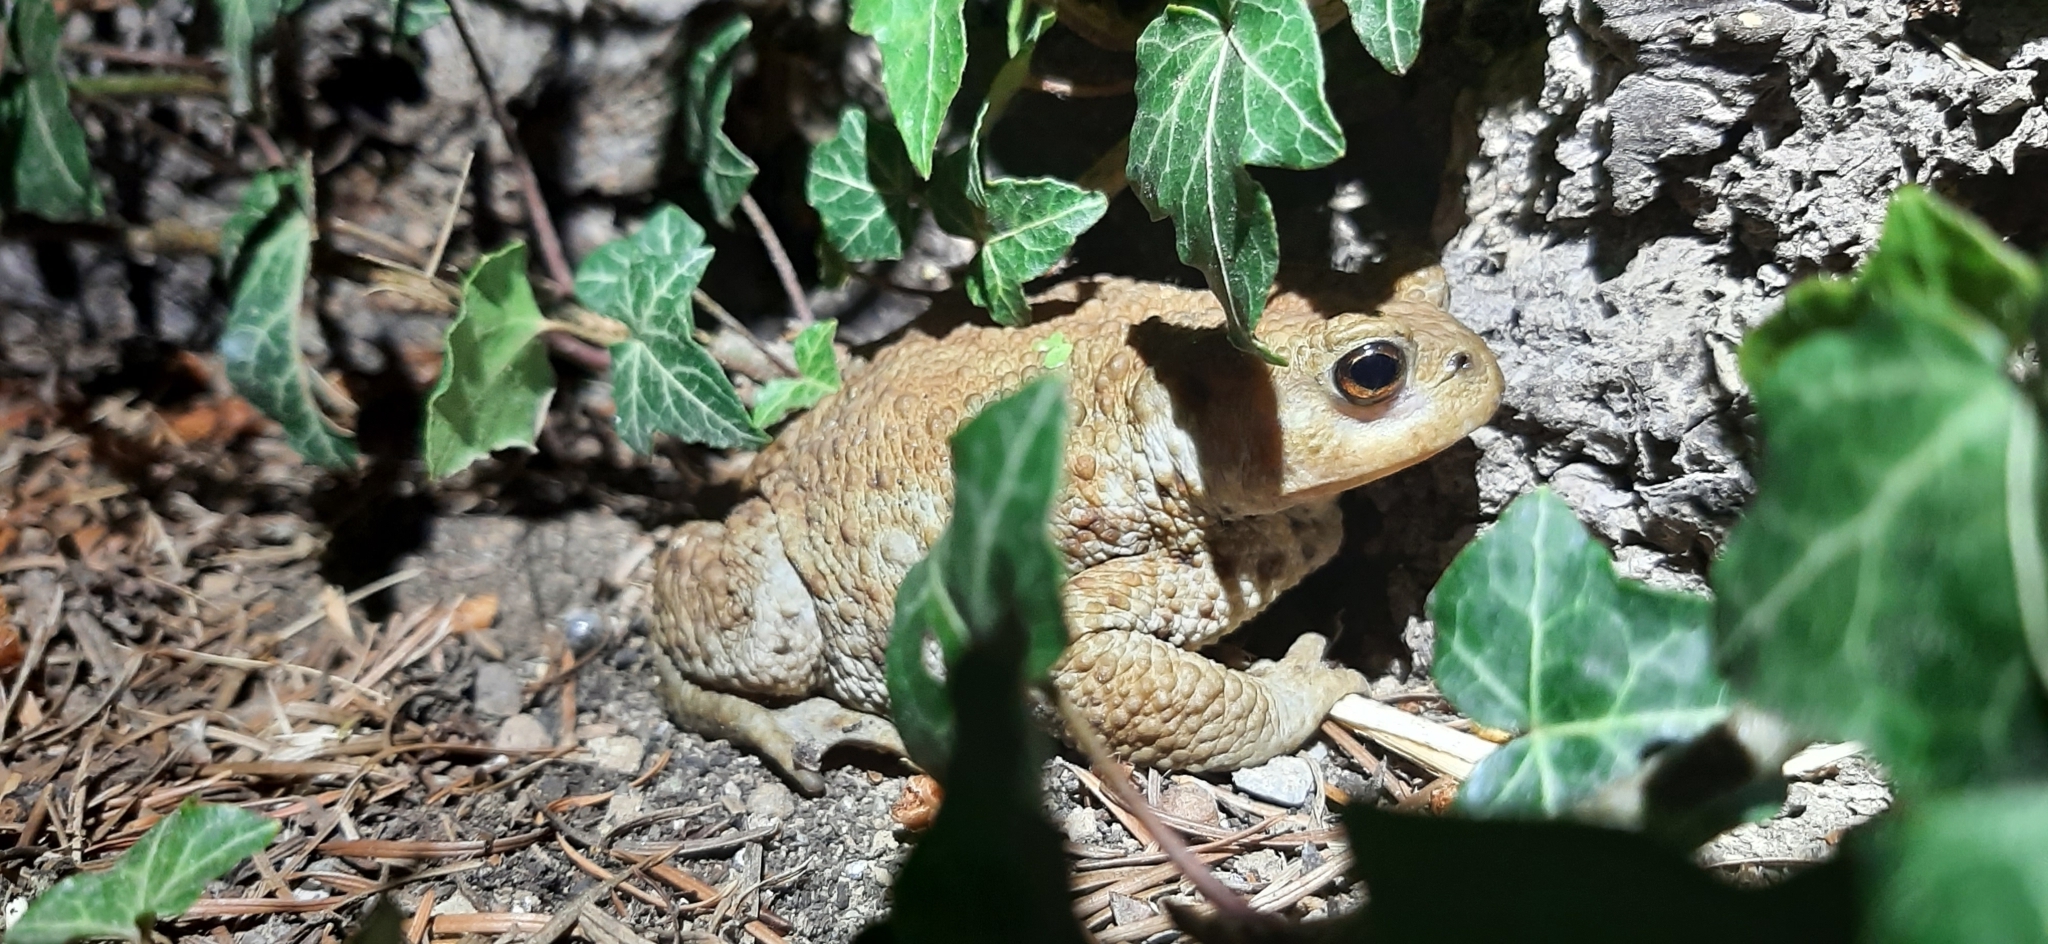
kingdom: Animalia
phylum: Chordata
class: Amphibia
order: Anura
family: Bufonidae
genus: Bufo
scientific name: Bufo bufo
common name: Common toad
